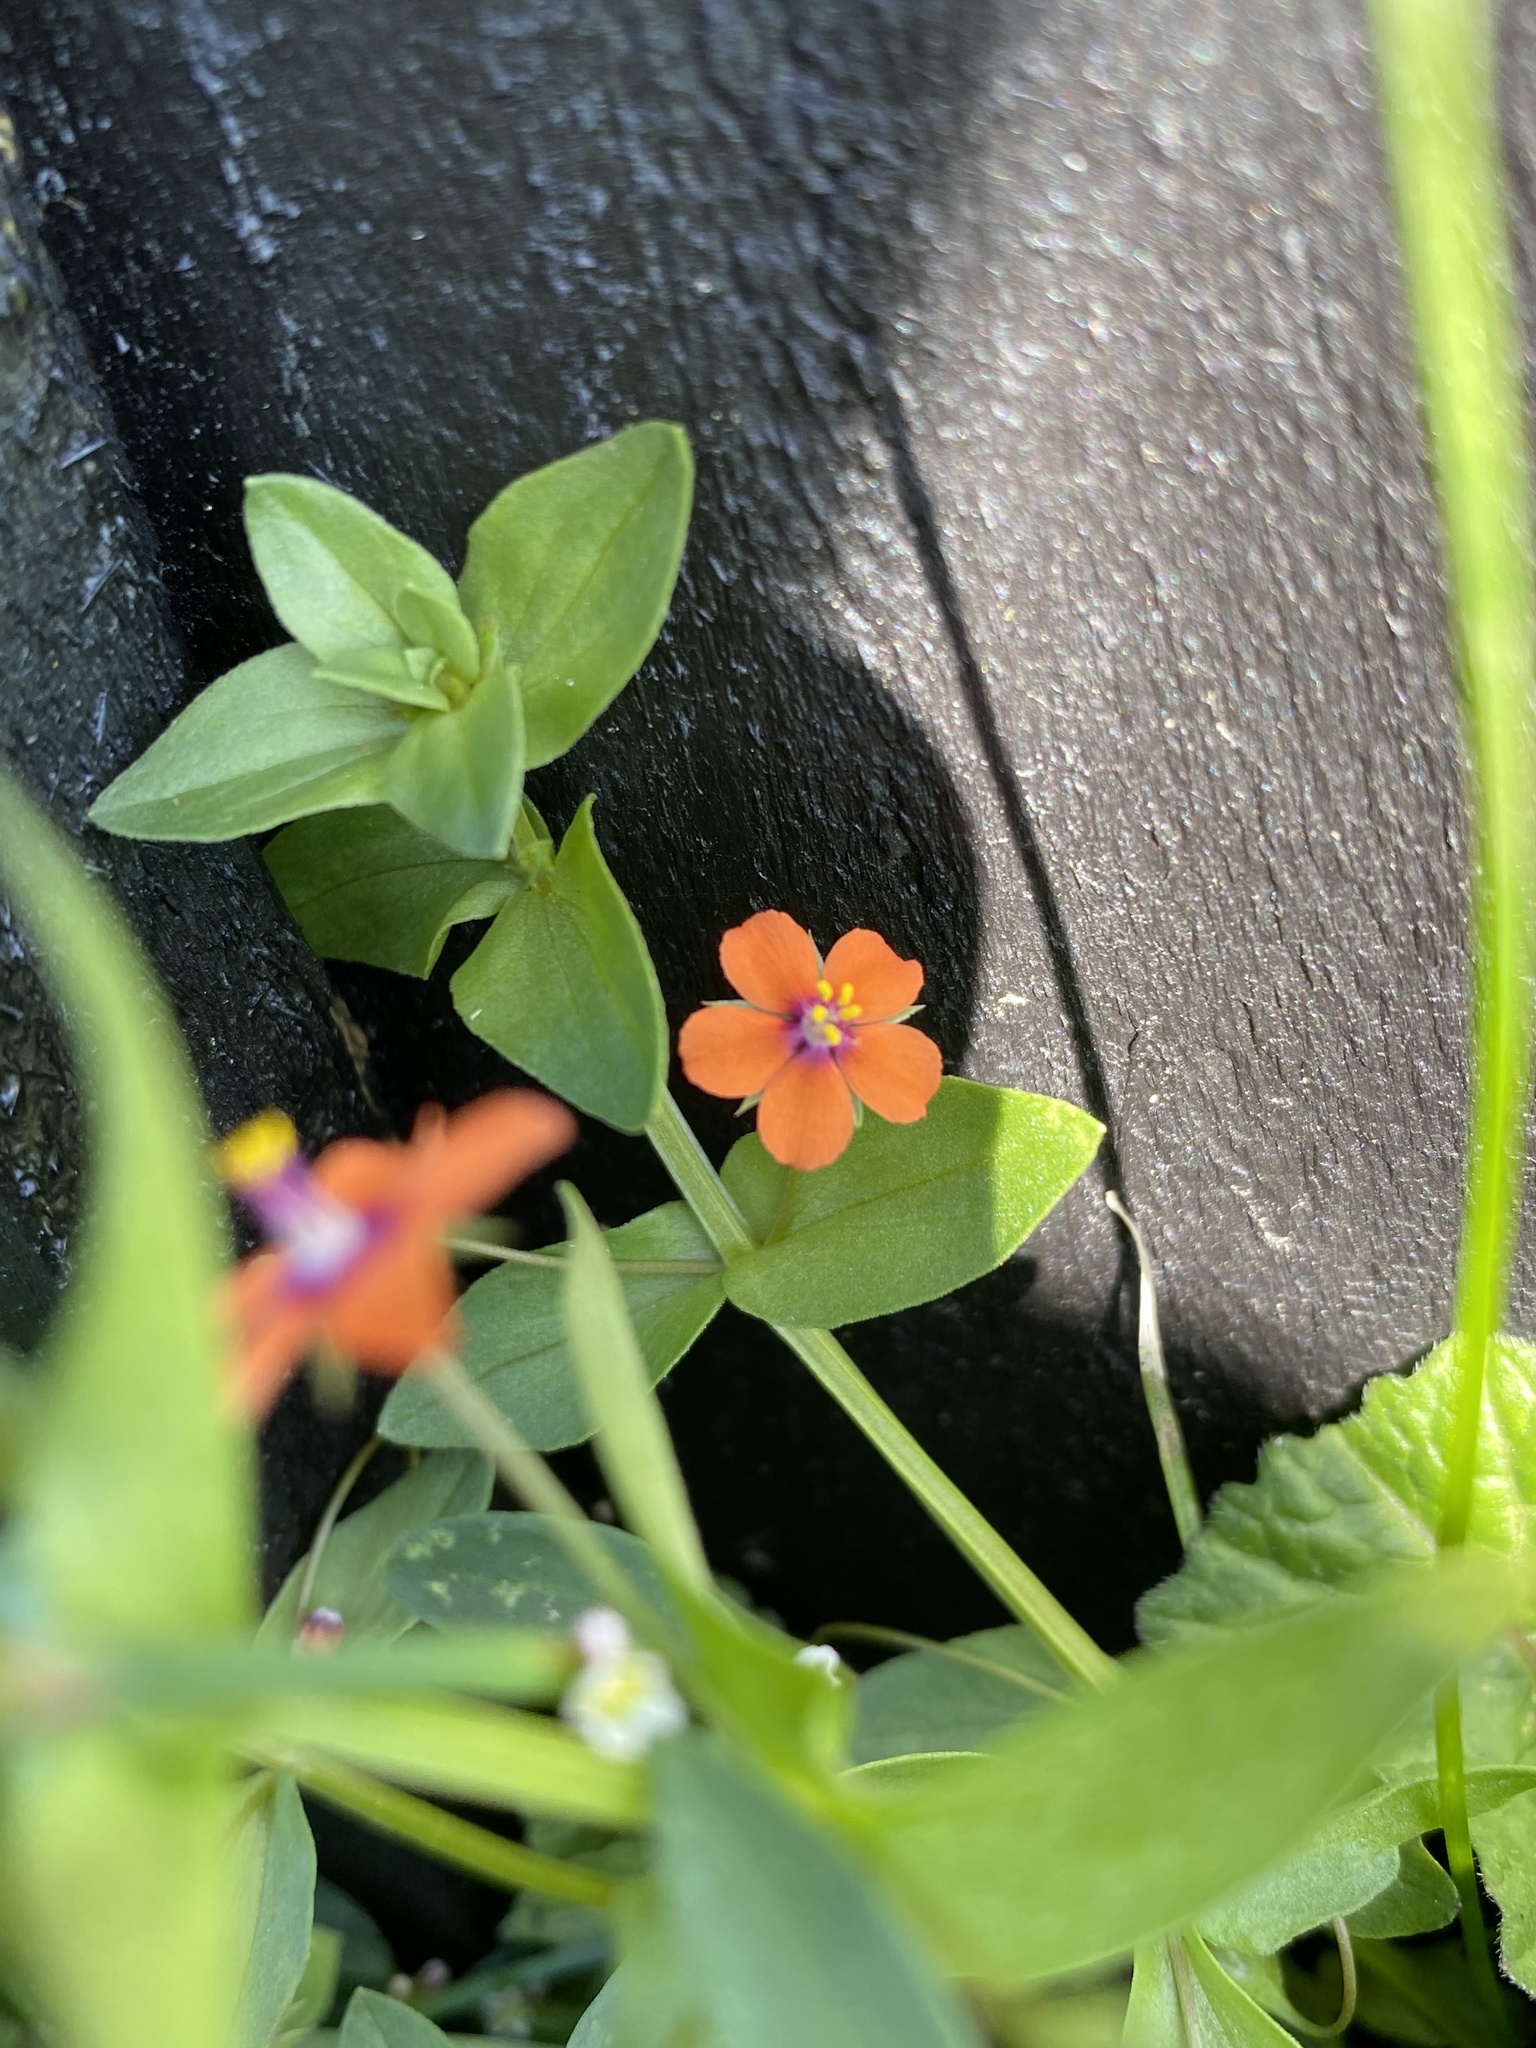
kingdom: Plantae
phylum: Tracheophyta
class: Magnoliopsida
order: Ericales
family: Primulaceae
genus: Lysimachia
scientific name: Lysimachia arvensis
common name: Scarlet pimpernel
